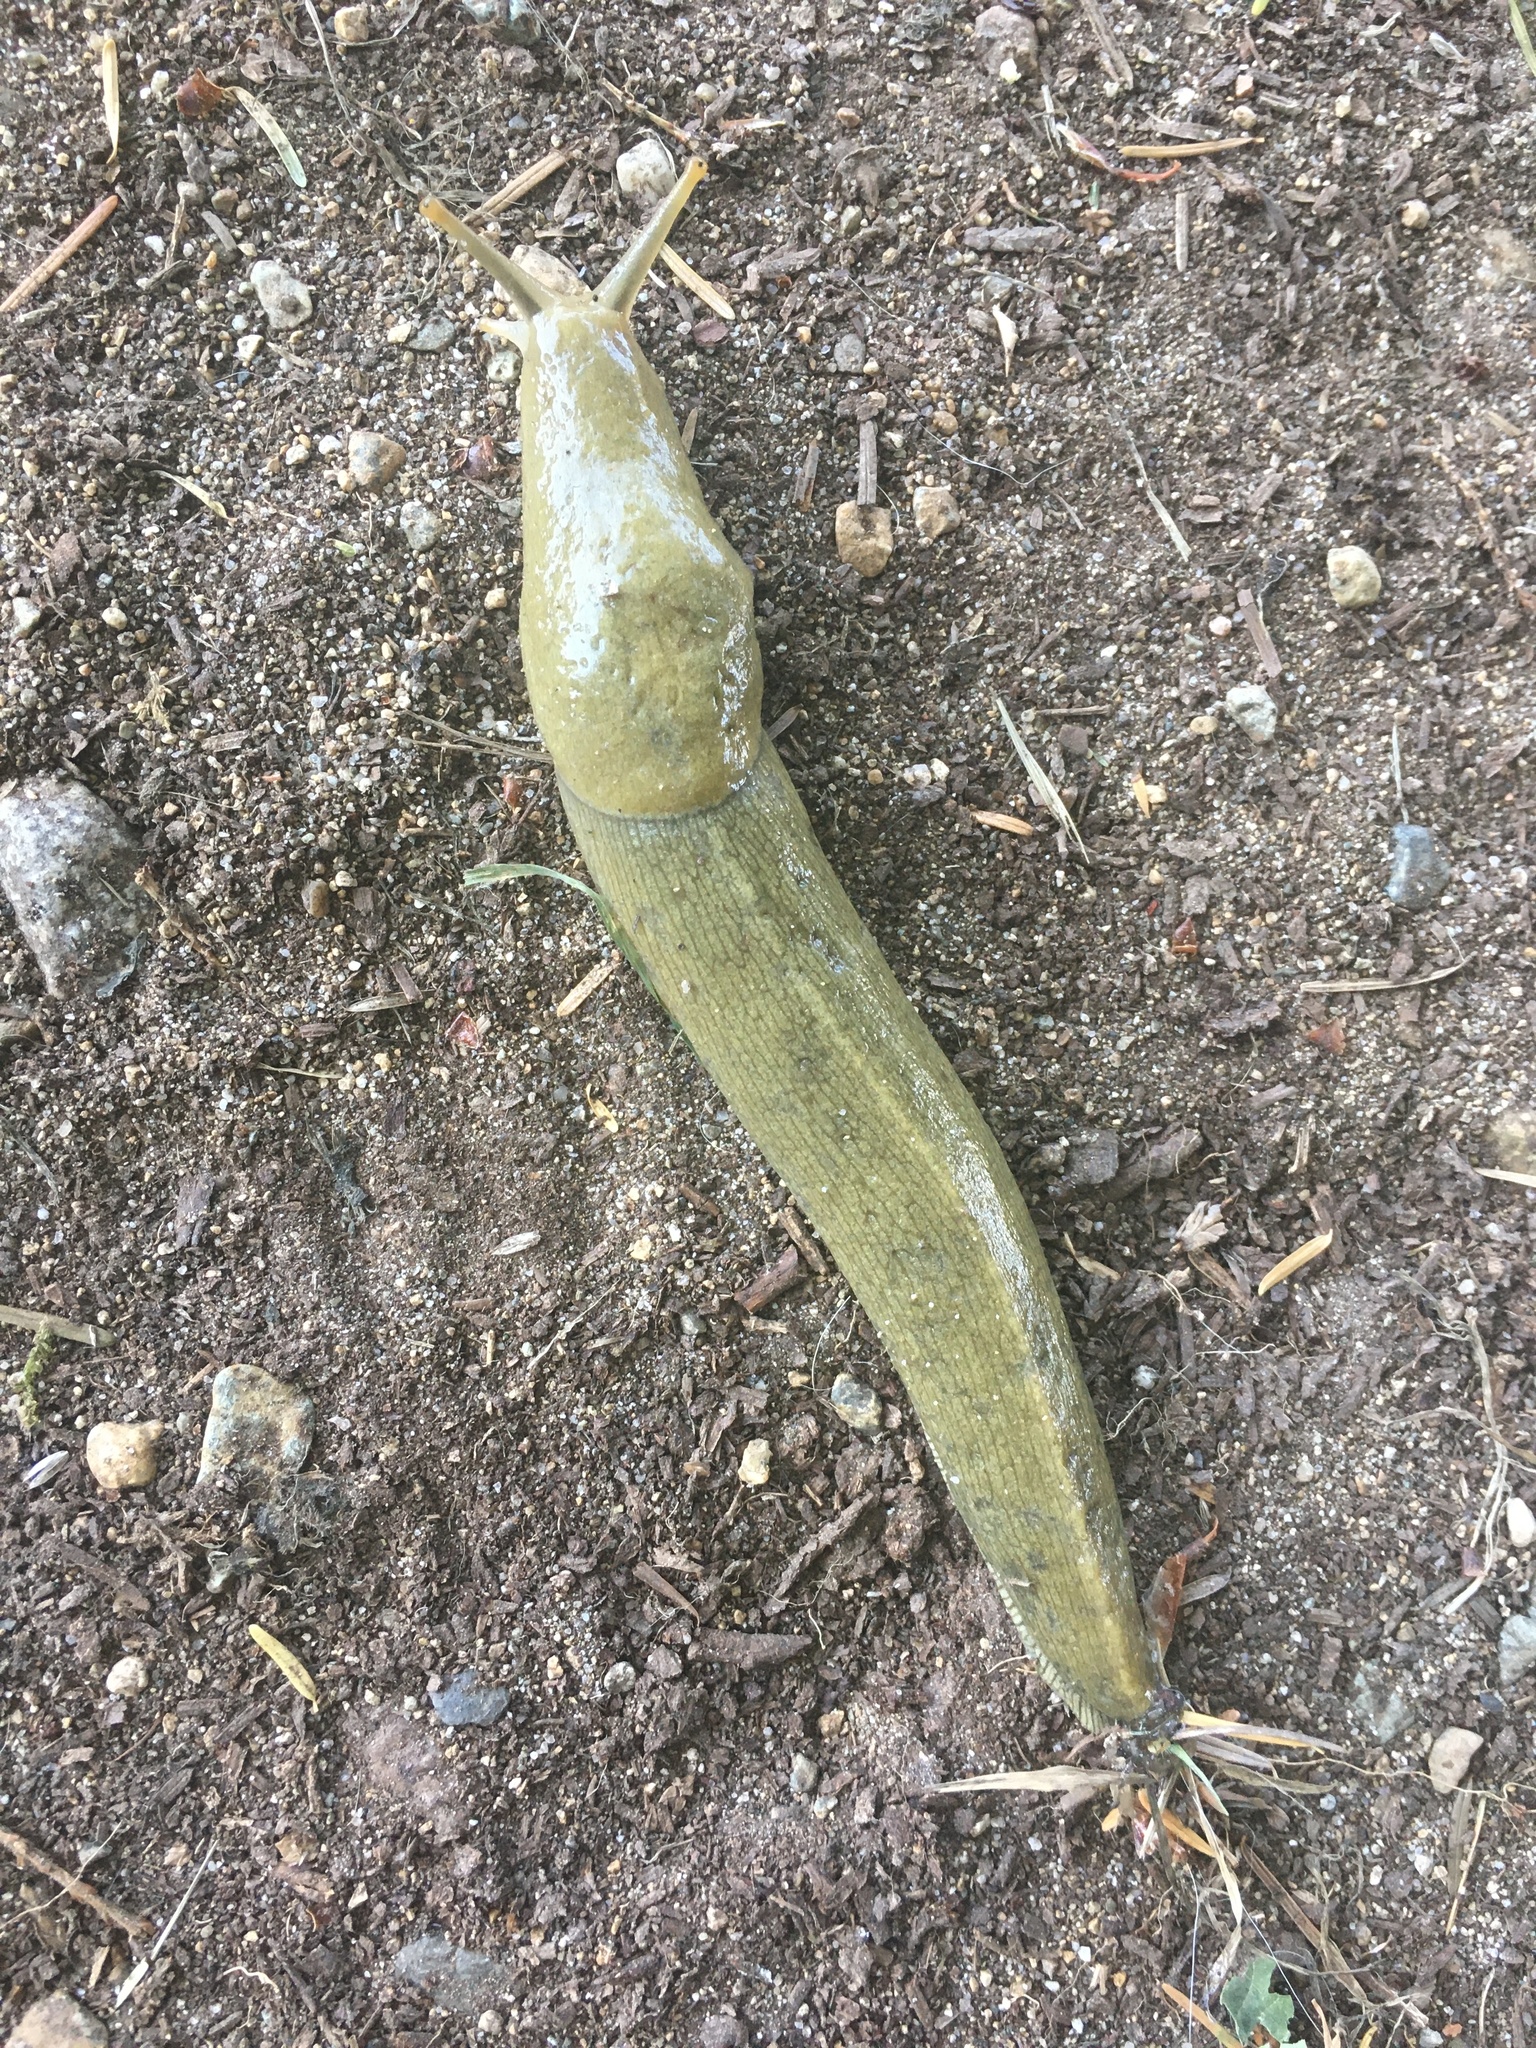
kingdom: Animalia
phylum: Mollusca
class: Gastropoda
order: Stylommatophora
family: Ariolimacidae
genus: Ariolimax
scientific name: Ariolimax columbianus
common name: Pacific banana slug
